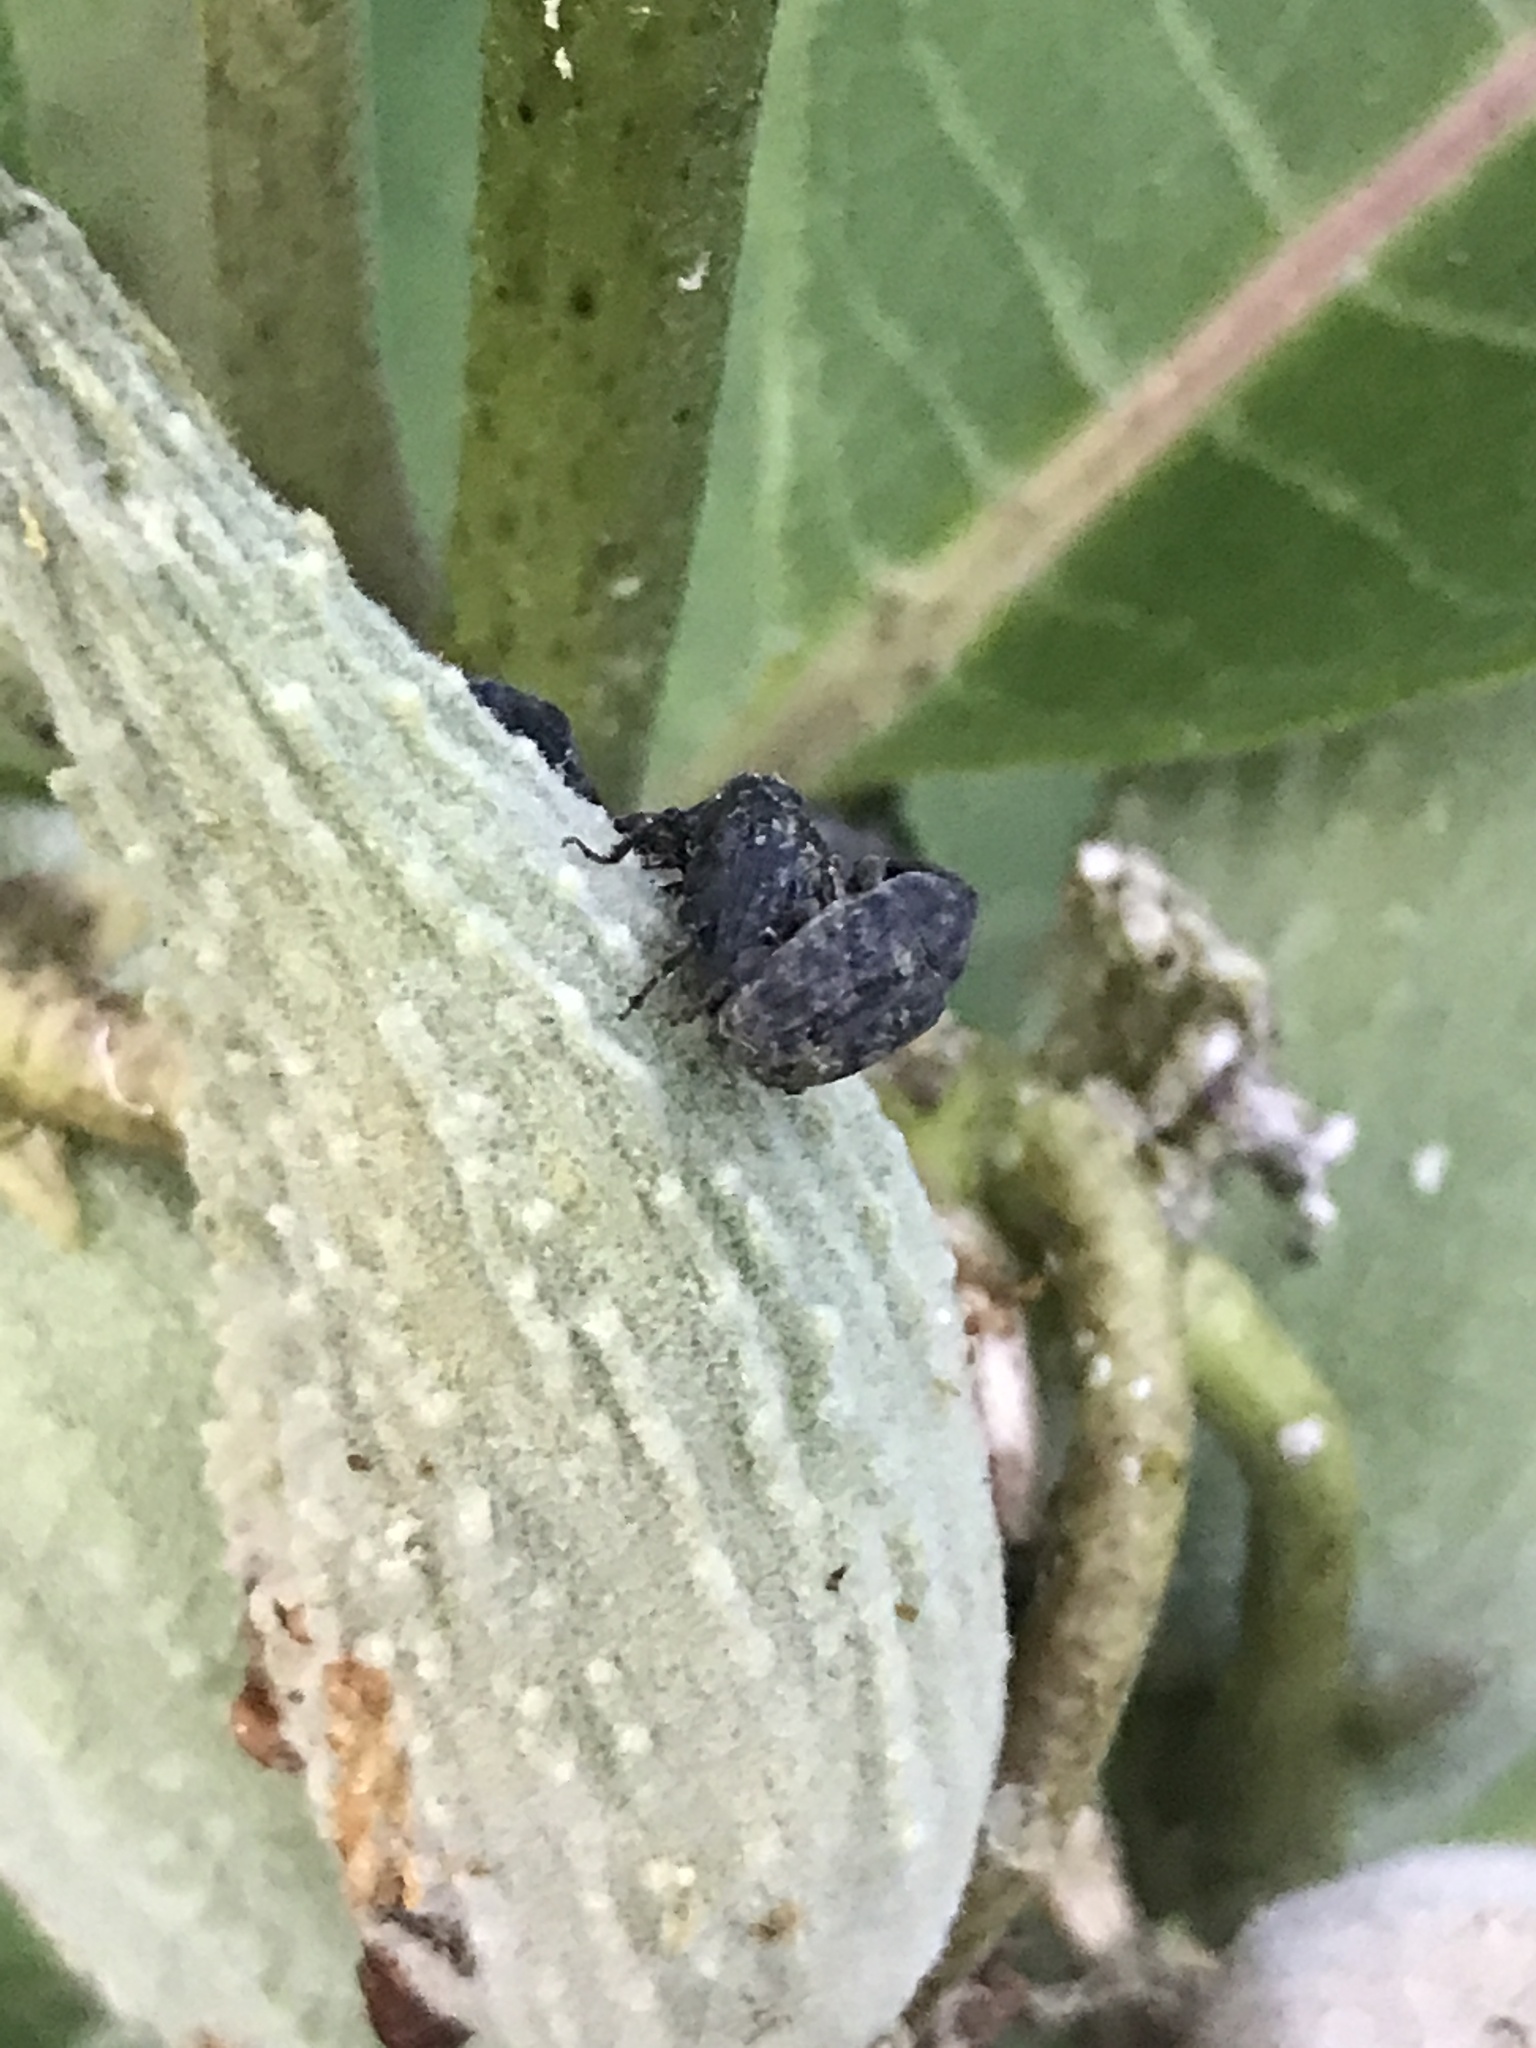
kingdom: Animalia
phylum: Arthropoda
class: Insecta
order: Coleoptera
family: Curculionidae
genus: Rhyssomatus
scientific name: Rhyssomatus lineaticollis
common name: Milkweed stem weevil
